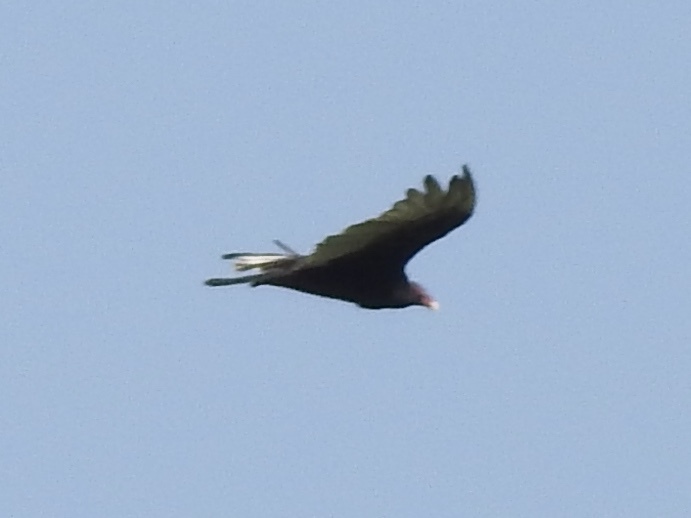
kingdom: Animalia
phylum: Chordata
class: Aves
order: Accipitriformes
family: Cathartidae
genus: Cathartes
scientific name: Cathartes aura
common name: Turkey vulture
